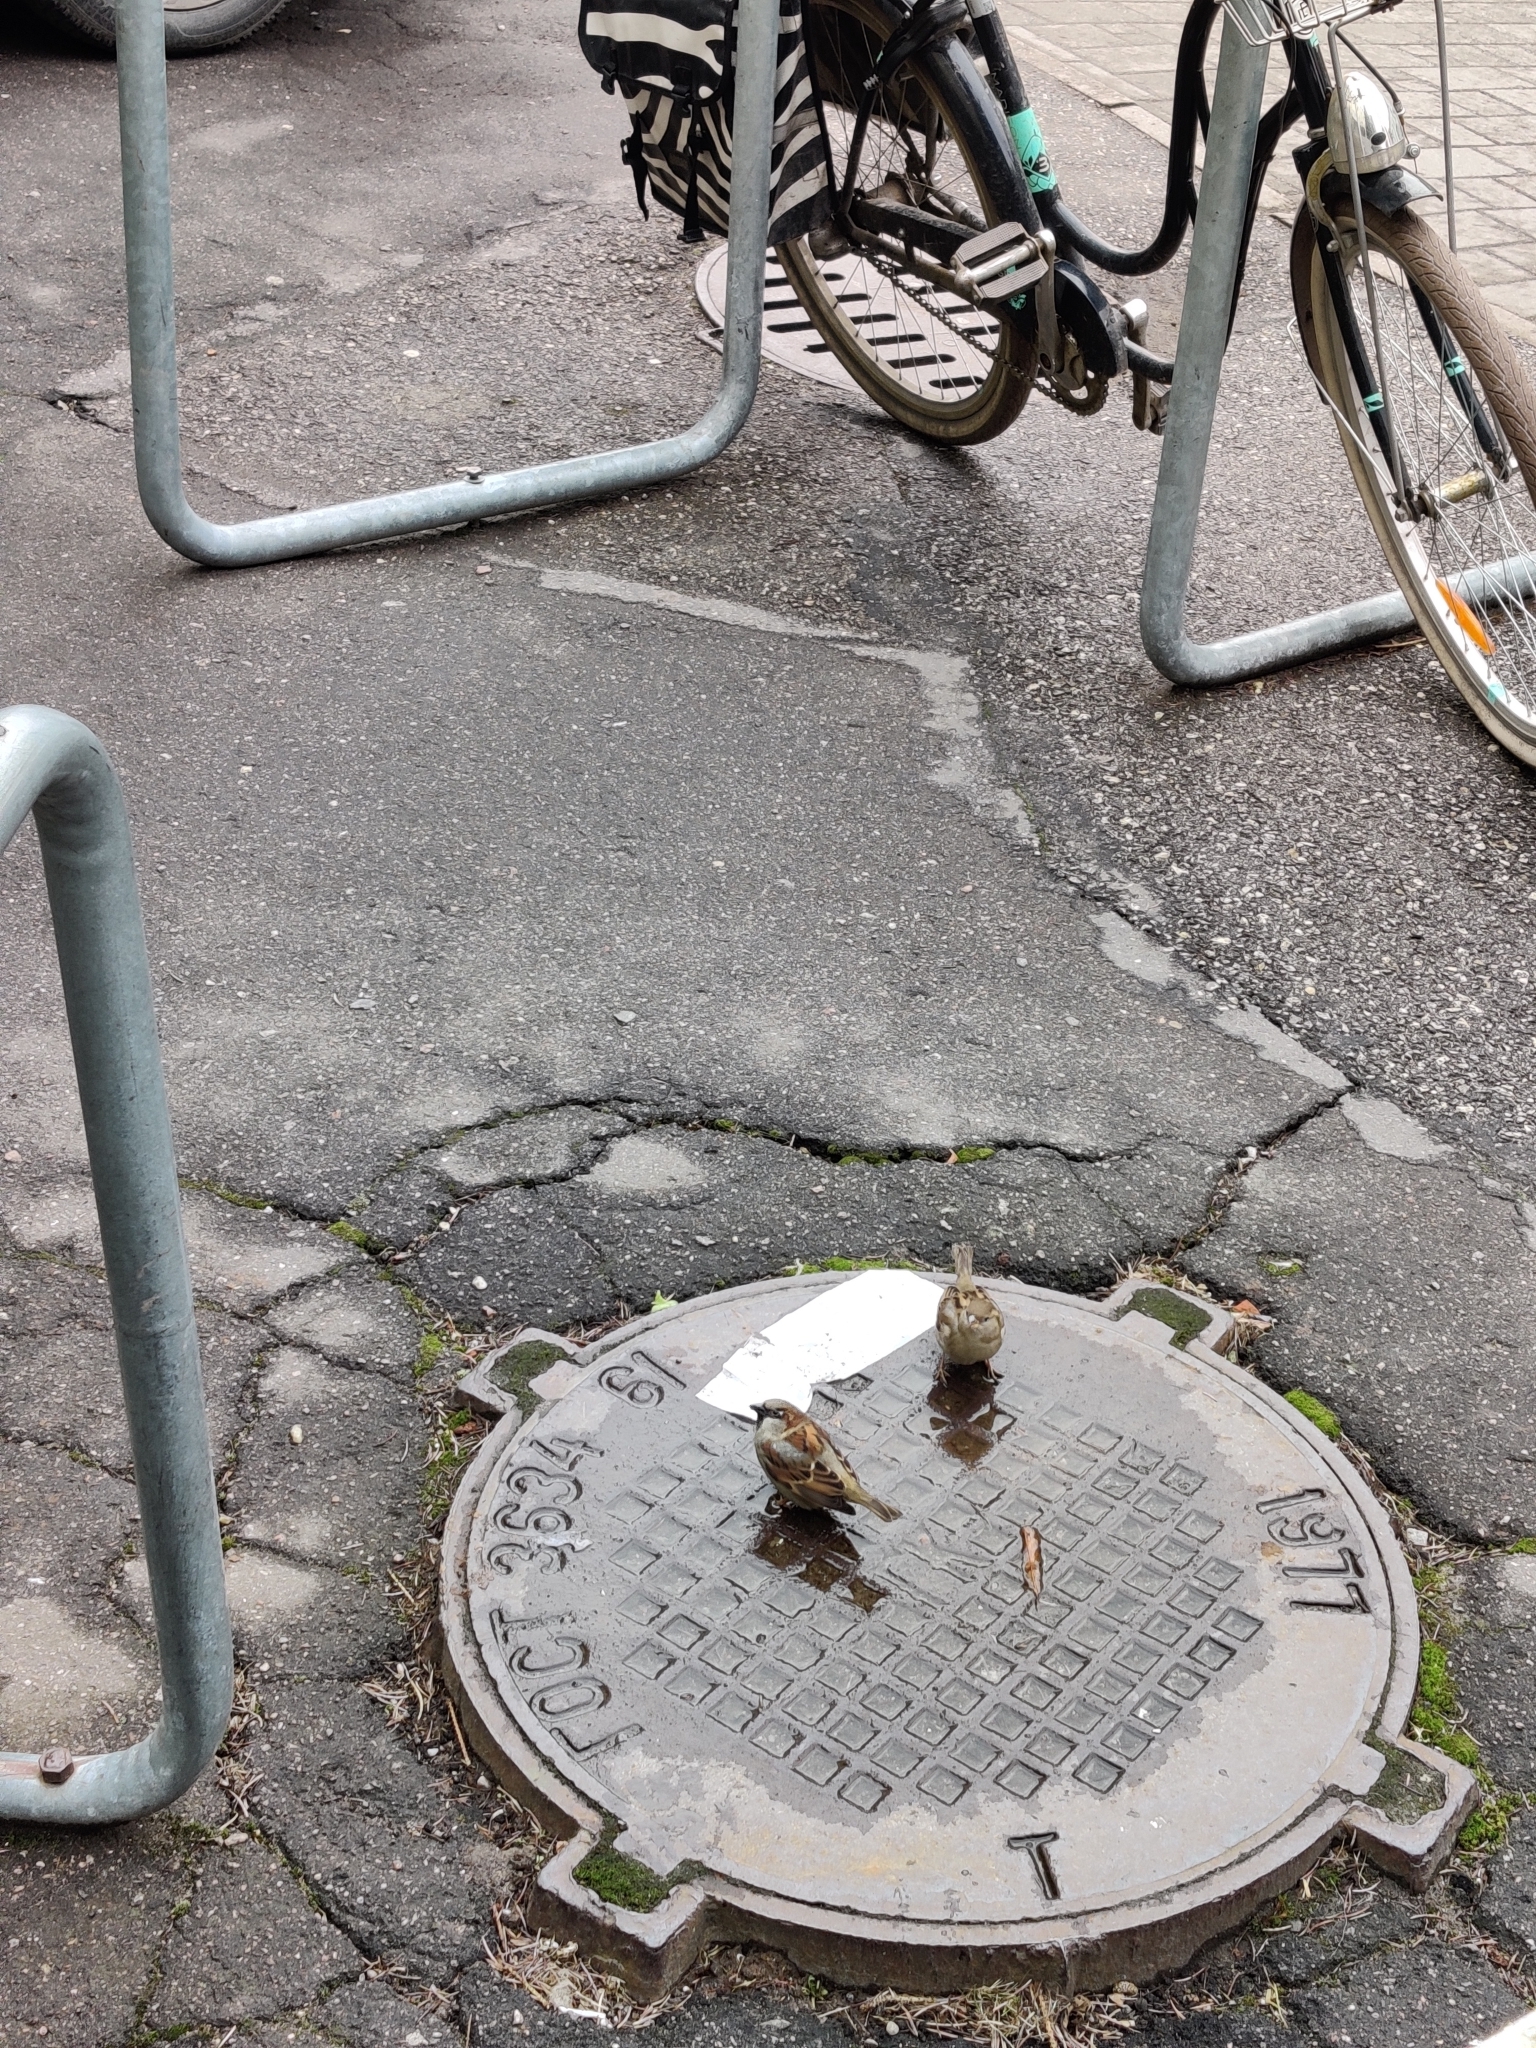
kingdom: Animalia
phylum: Chordata
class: Aves
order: Passeriformes
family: Passeridae
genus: Passer
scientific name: Passer domesticus
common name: House sparrow
